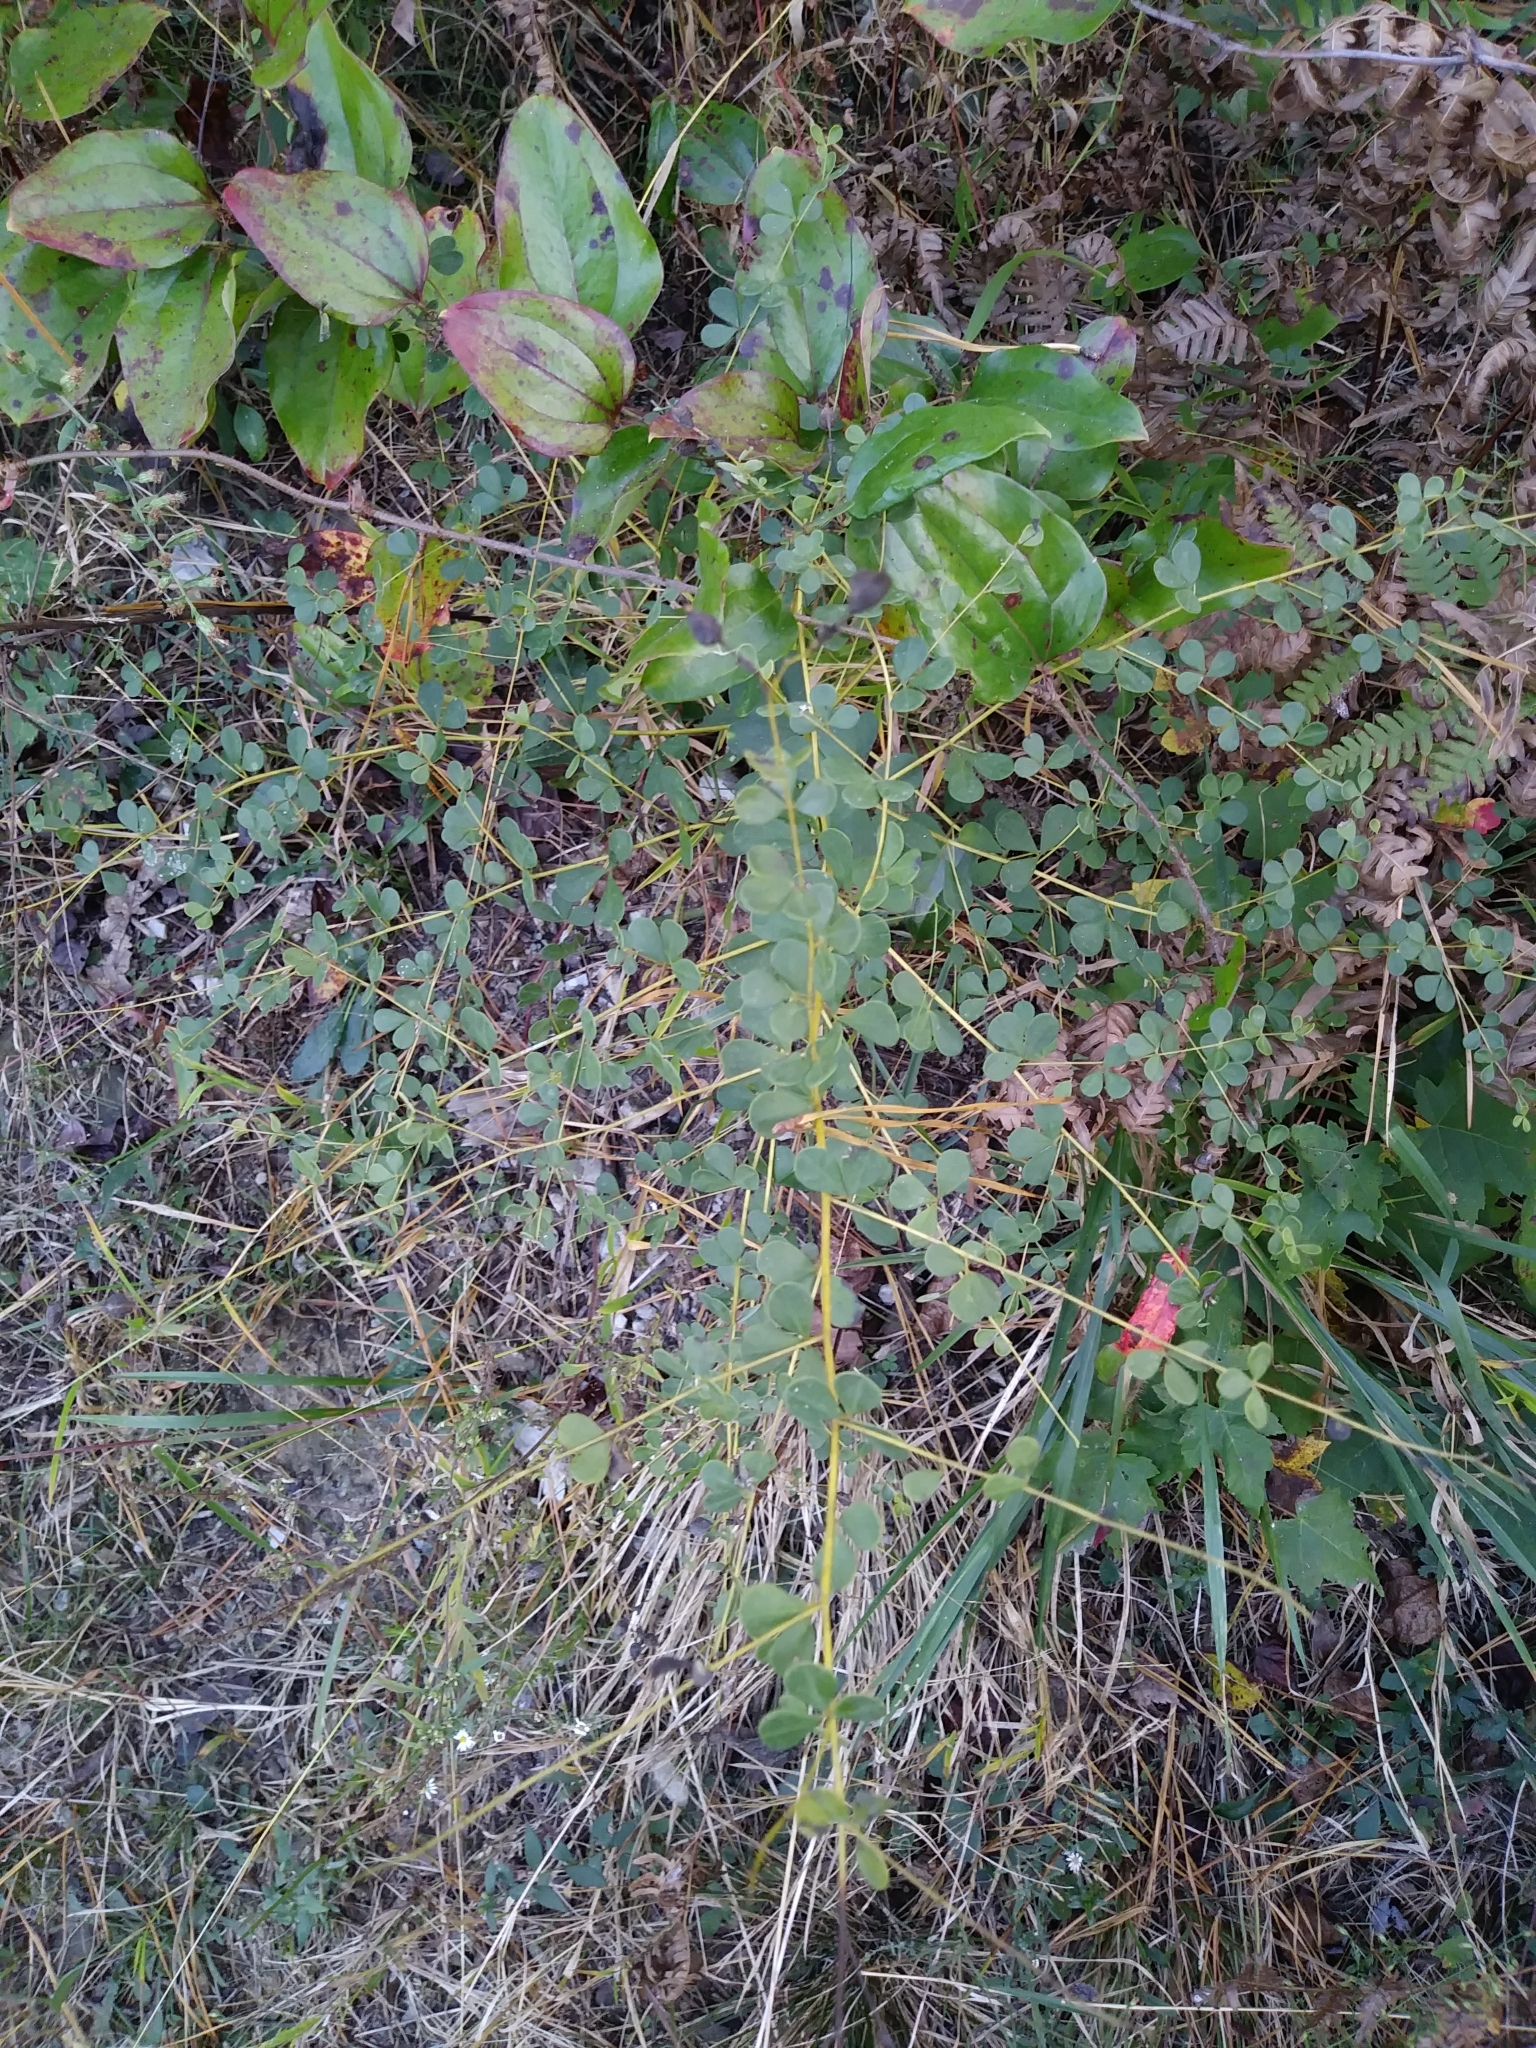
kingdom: Plantae
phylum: Tracheophyta
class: Magnoliopsida
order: Fabales
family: Fabaceae
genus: Baptisia
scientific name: Baptisia tinctoria
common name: Wild indigo
